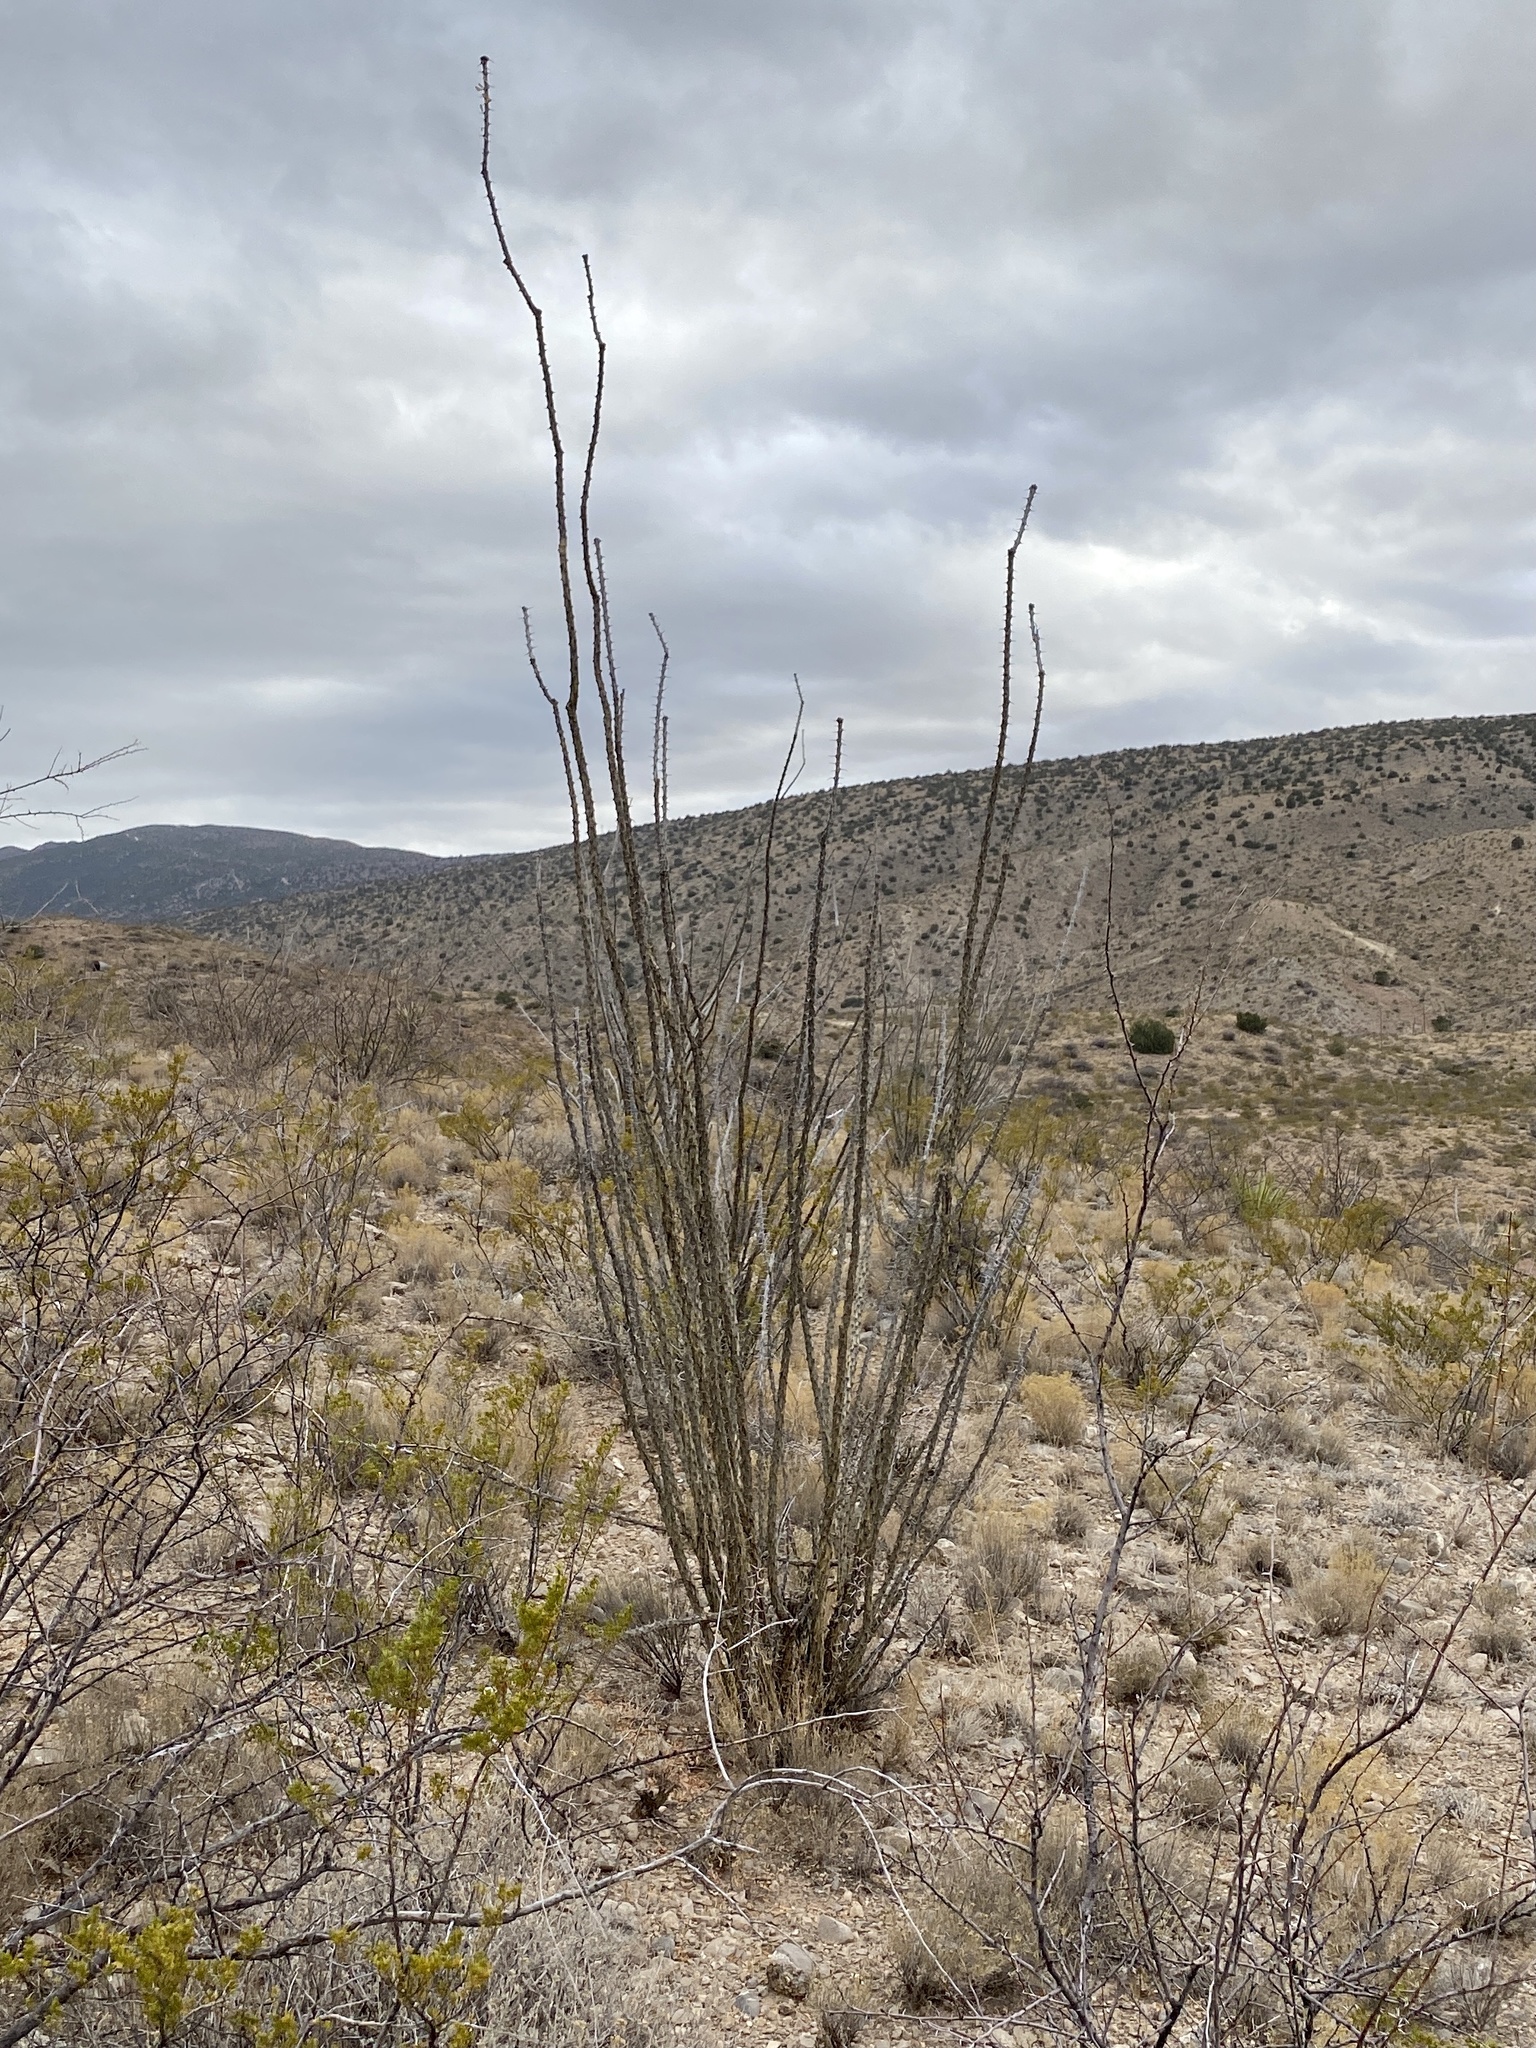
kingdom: Plantae
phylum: Tracheophyta
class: Magnoliopsida
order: Ericales
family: Fouquieriaceae
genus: Fouquieria
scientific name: Fouquieria splendens
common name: Vine-cactus
